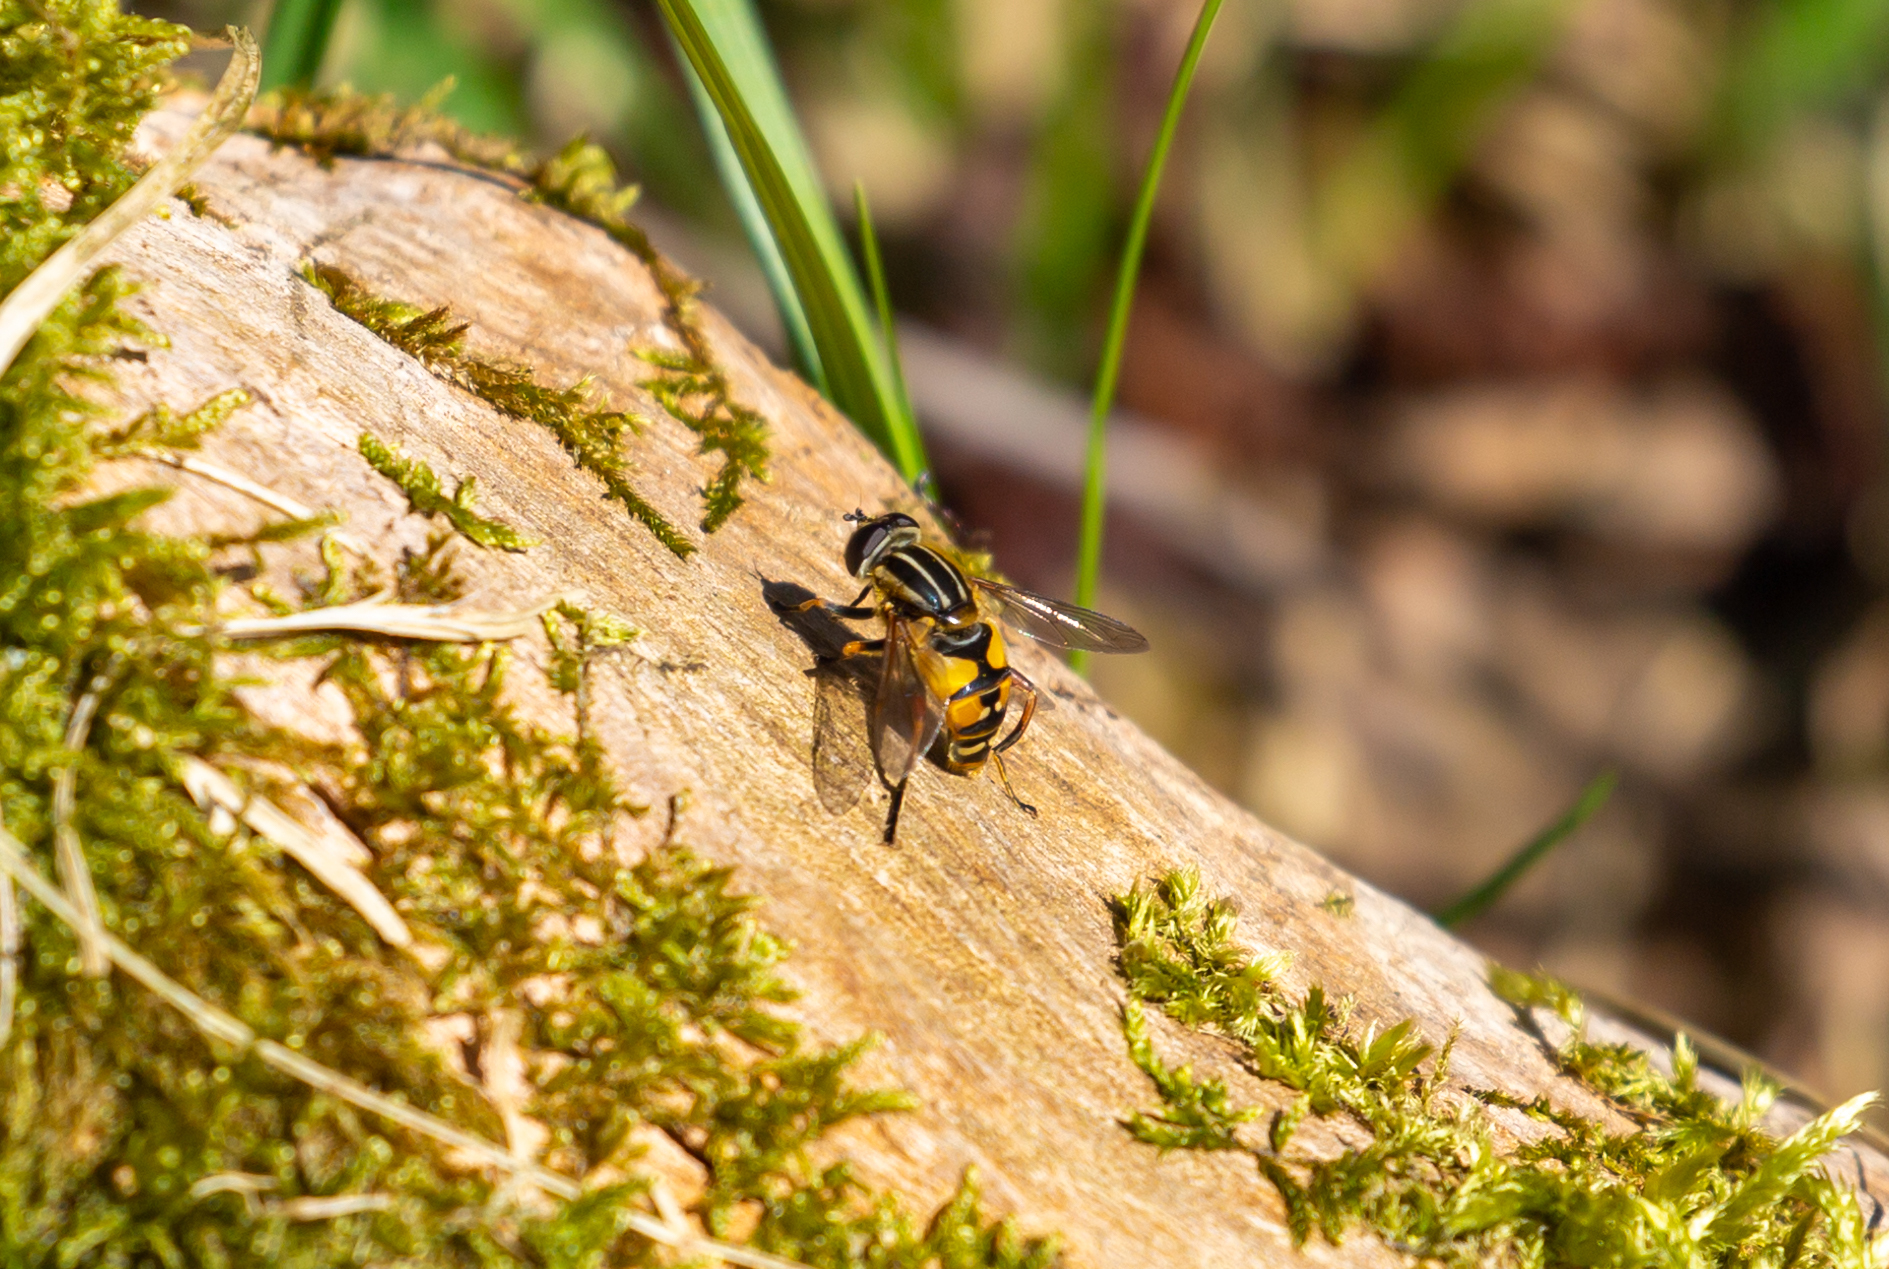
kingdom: Animalia
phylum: Arthropoda
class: Insecta
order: Diptera
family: Syrphidae
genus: Helophilus
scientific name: Helophilus pendulus
